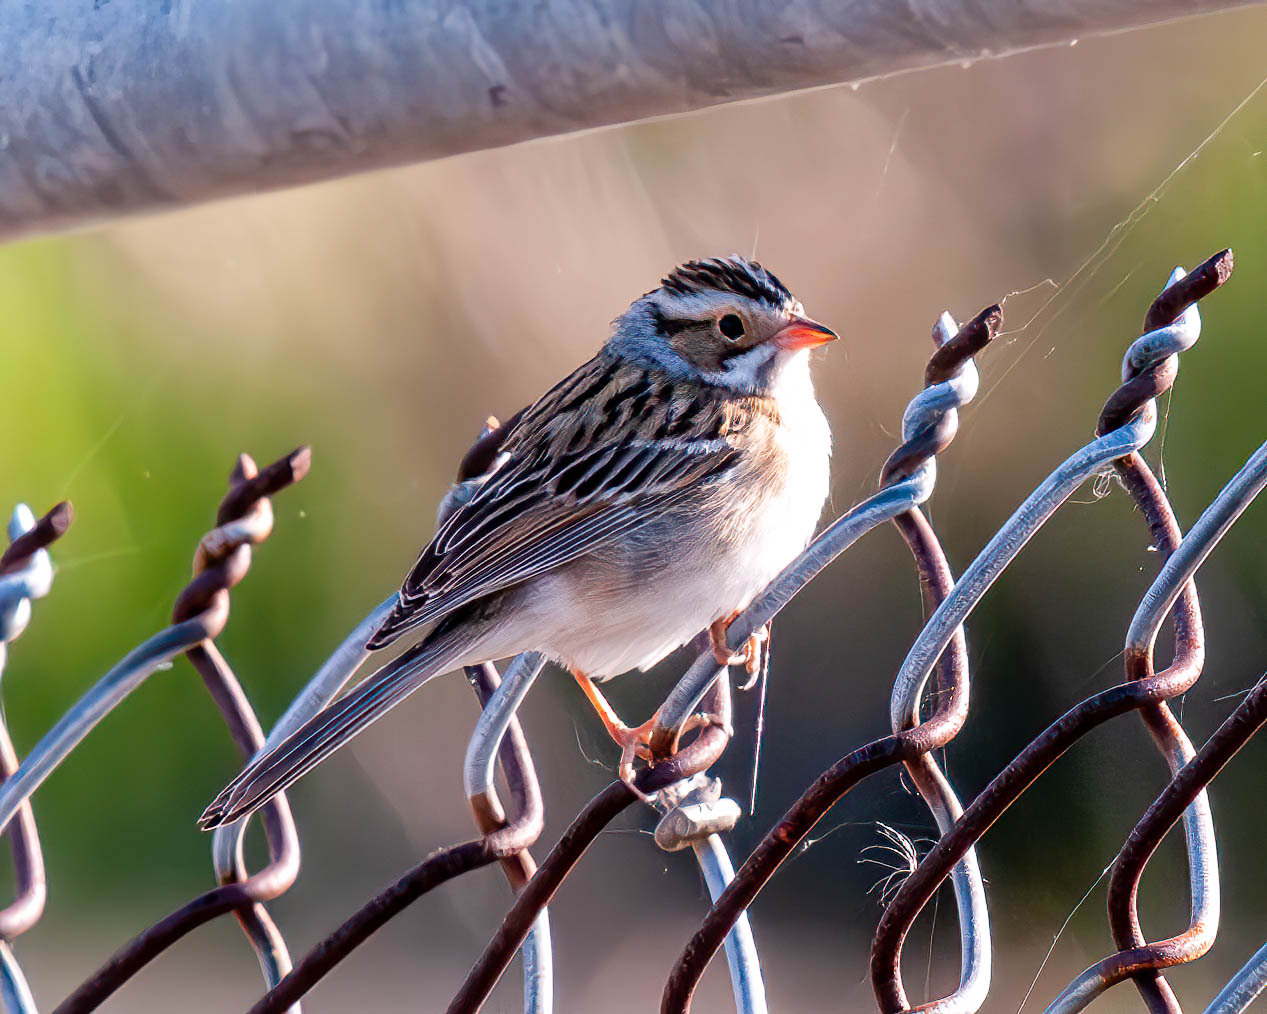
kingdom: Animalia
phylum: Chordata
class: Aves
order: Passeriformes
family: Passerellidae
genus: Spizella
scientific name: Spizella pallida
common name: Clay-colored sparrow
